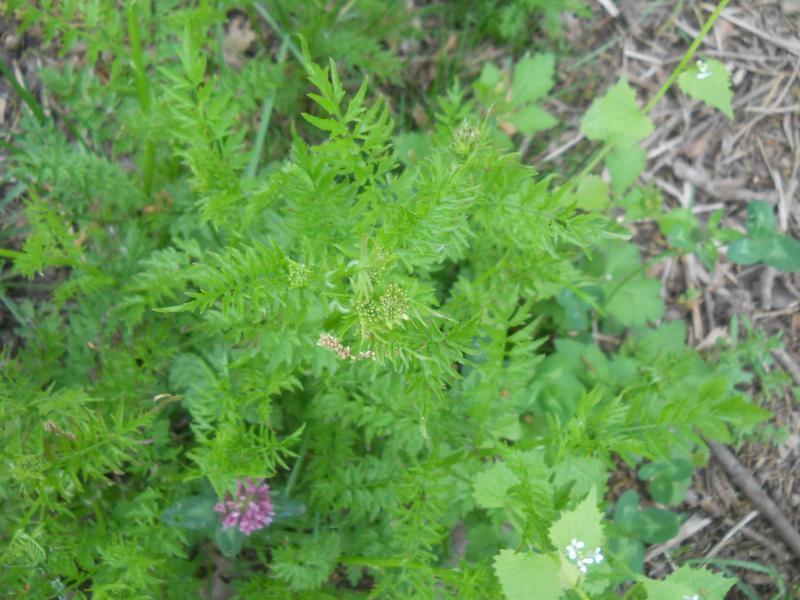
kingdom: Plantae
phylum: Tracheophyta
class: Magnoliopsida
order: Brassicales
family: Brassicaceae
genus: Cardamine
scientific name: Cardamine impatiens
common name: Narrow-leaved bitter-cress
